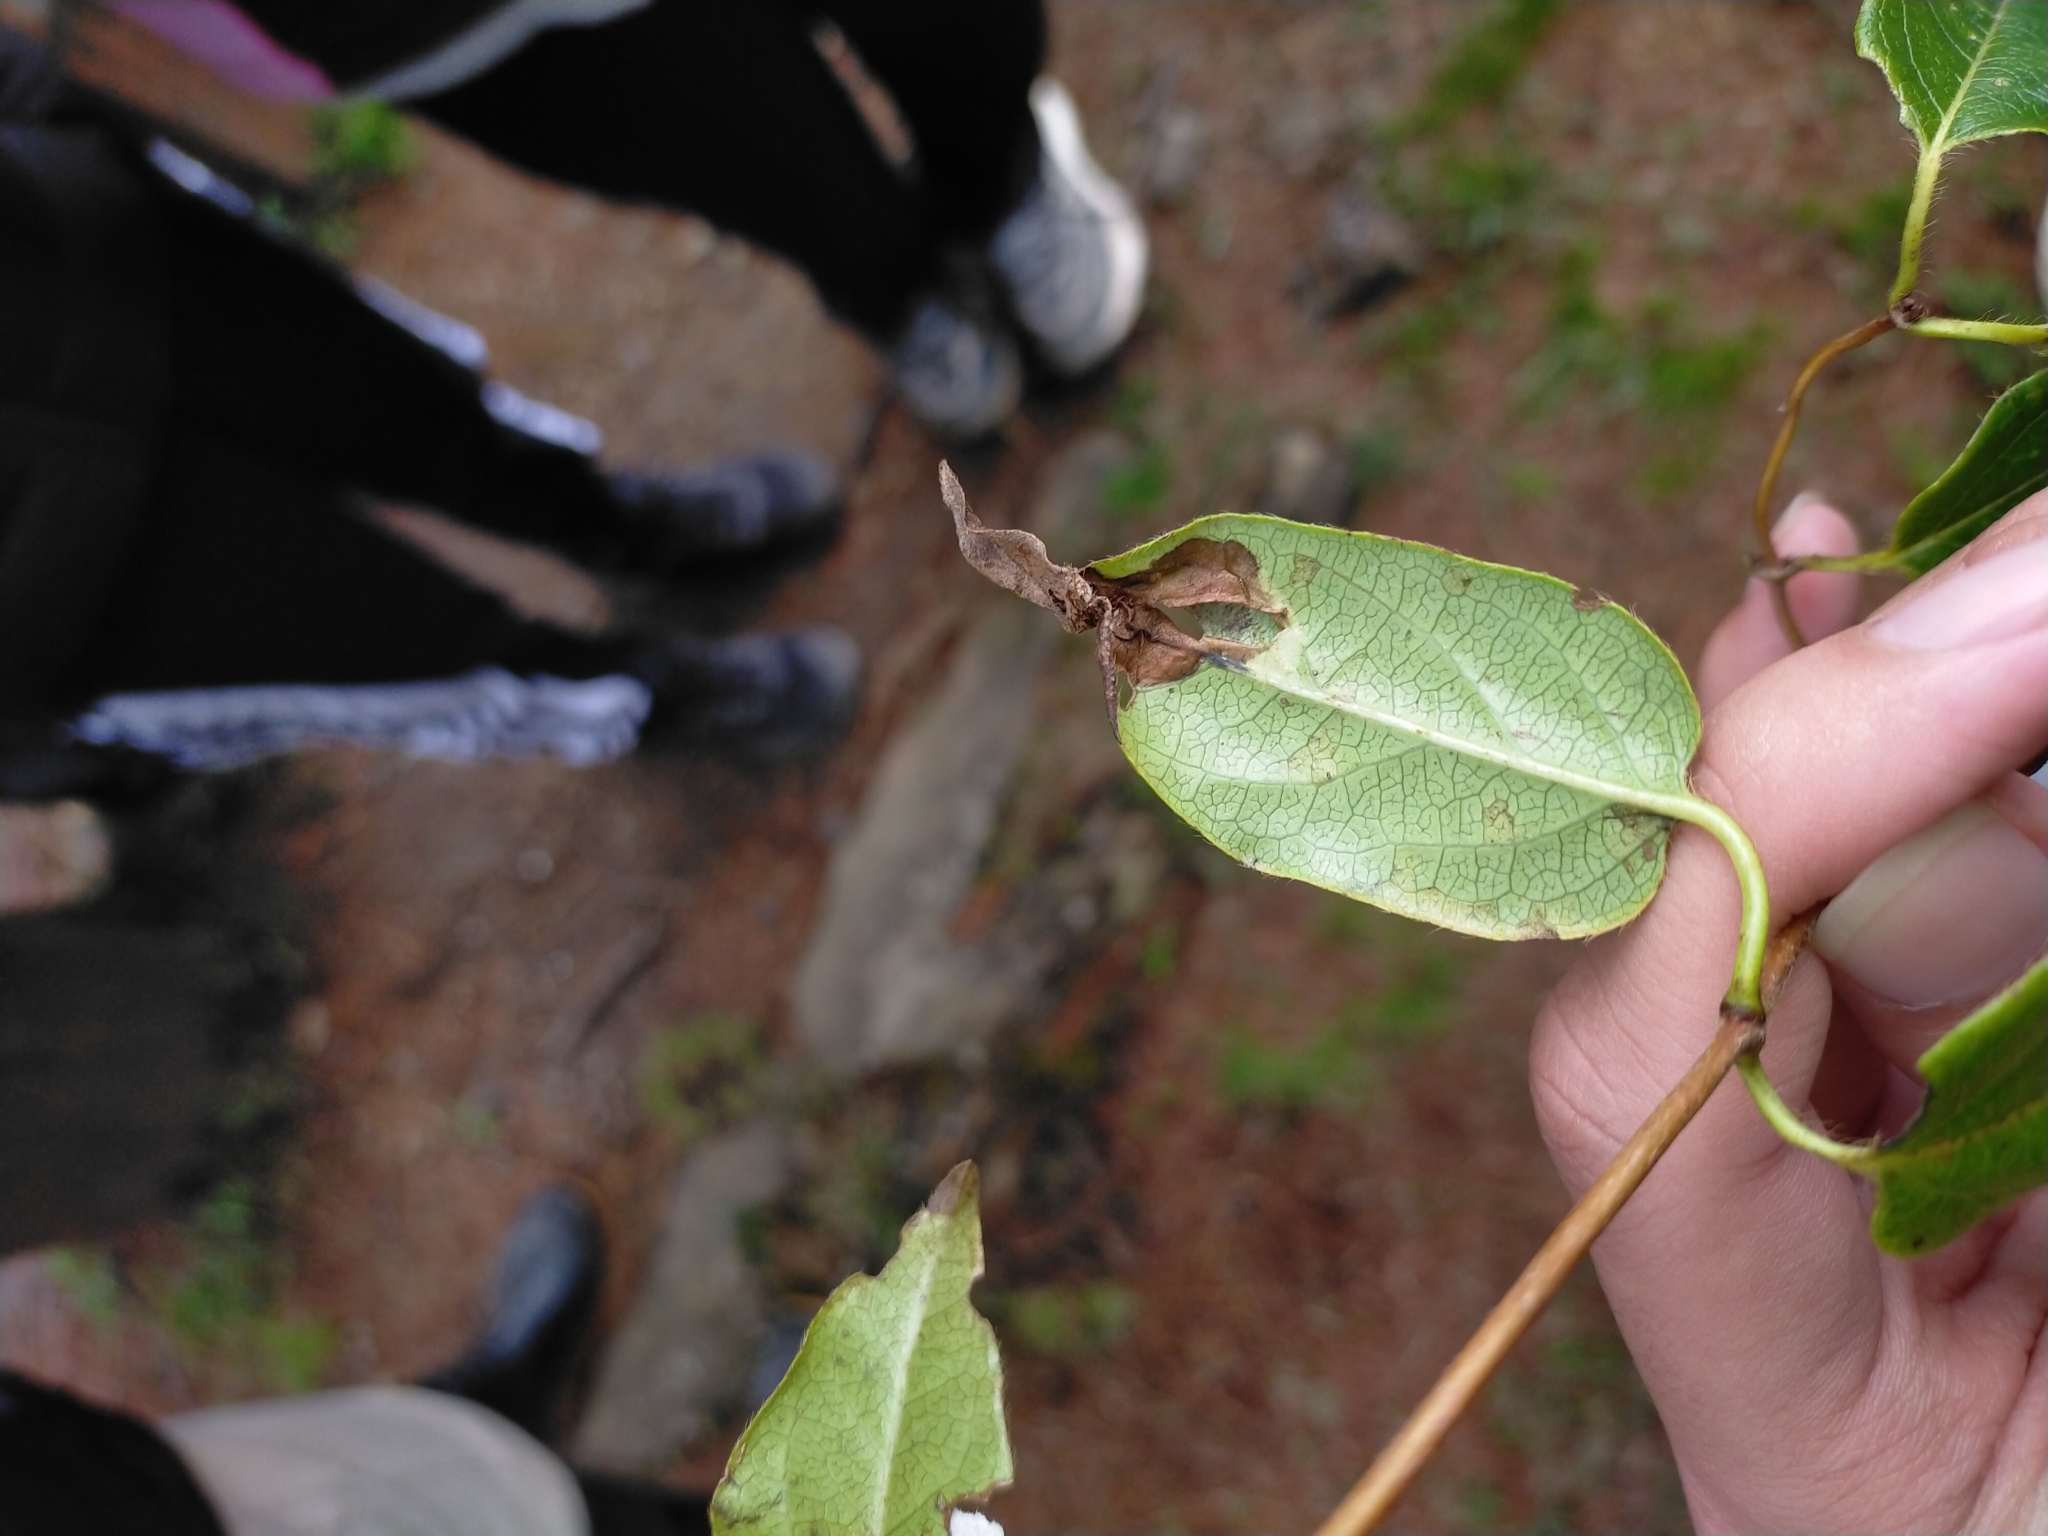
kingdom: Plantae
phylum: Tracheophyta
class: Magnoliopsida
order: Dipsacales
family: Caprifoliaceae
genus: Lonicera
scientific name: Lonicera acuminata
